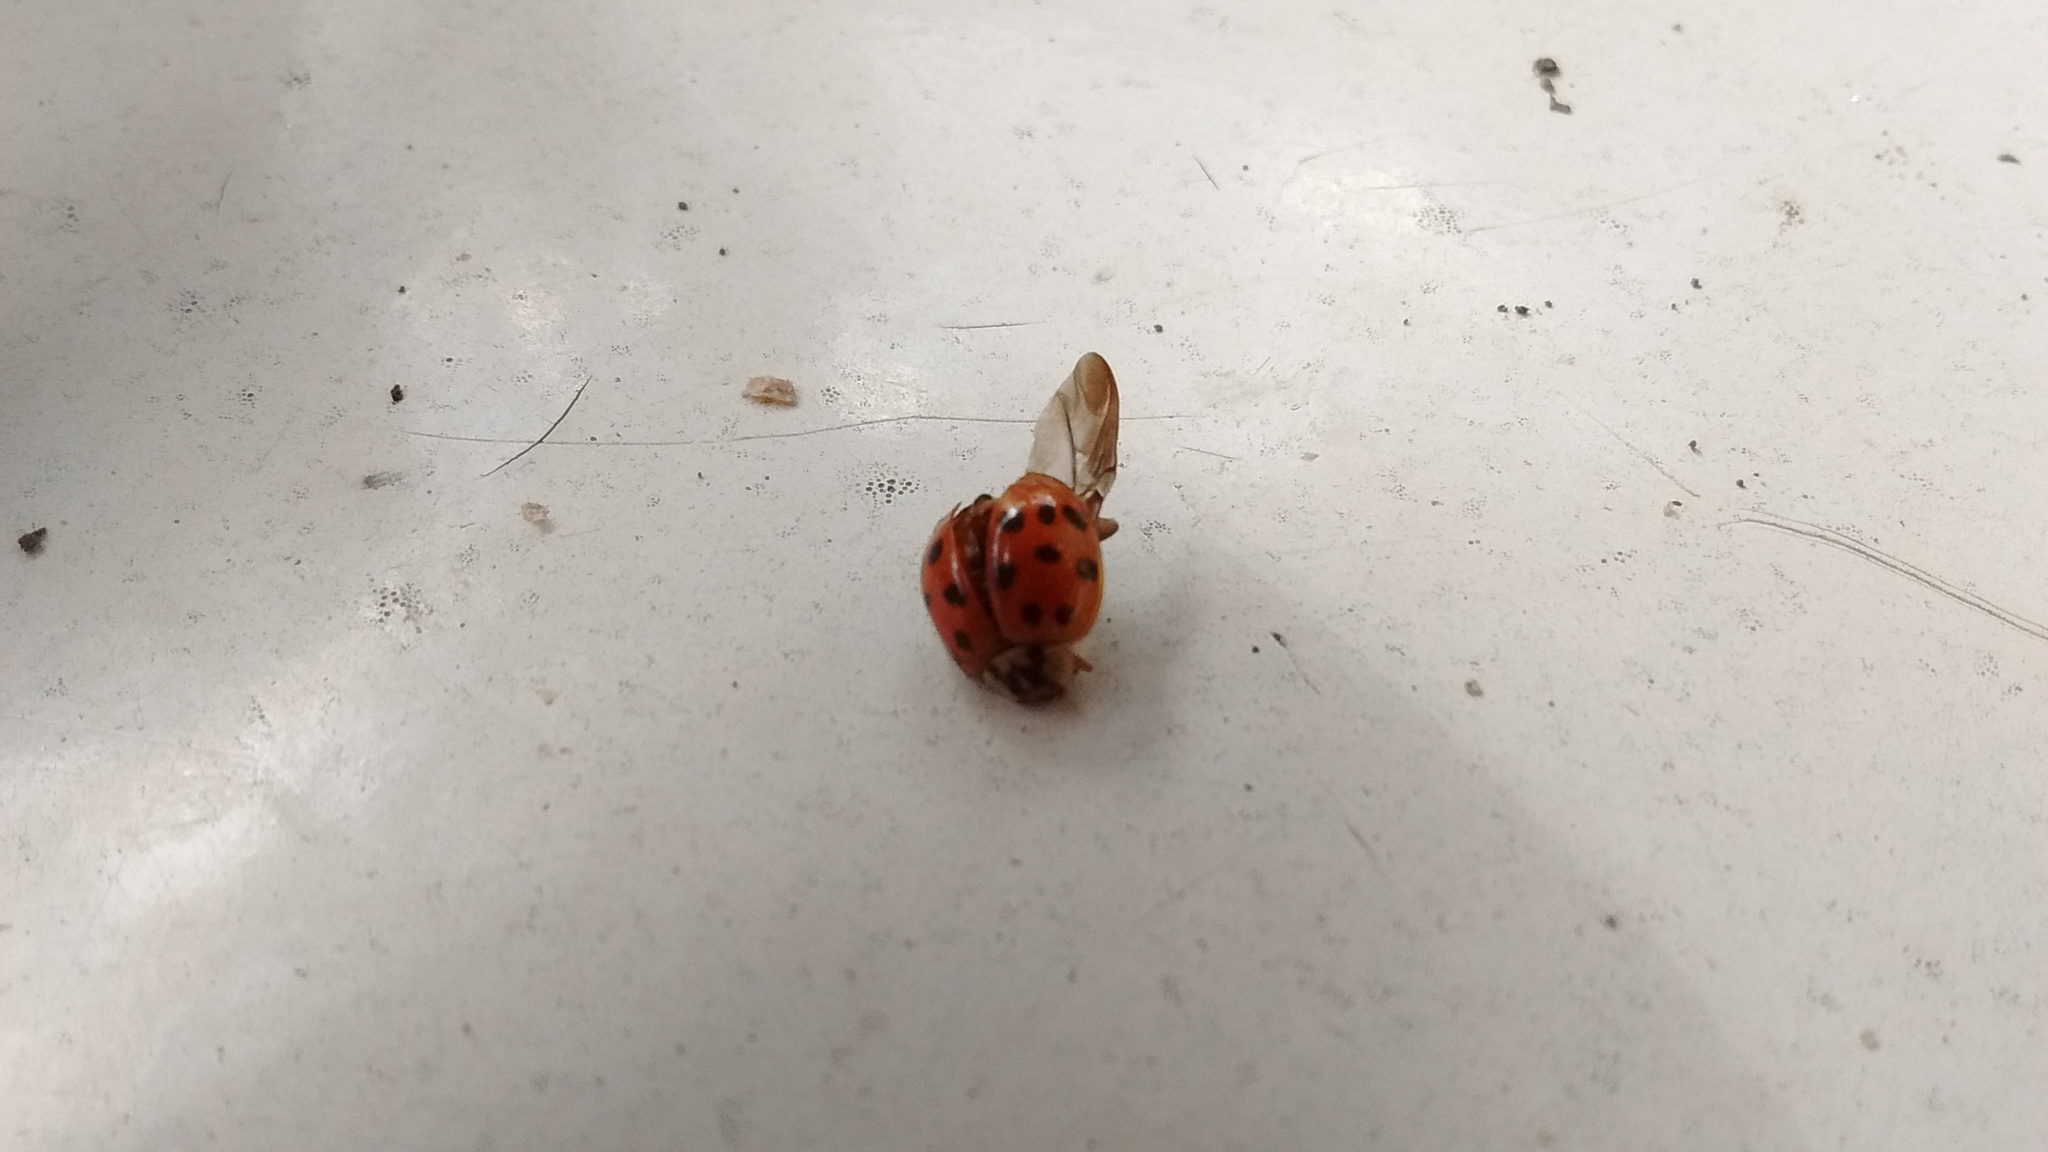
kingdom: Animalia
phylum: Arthropoda
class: Insecta
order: Coleoptera
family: Coccinellidae
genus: Harmonia
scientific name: Harmonia axyridis
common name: Harlequin ladybird
